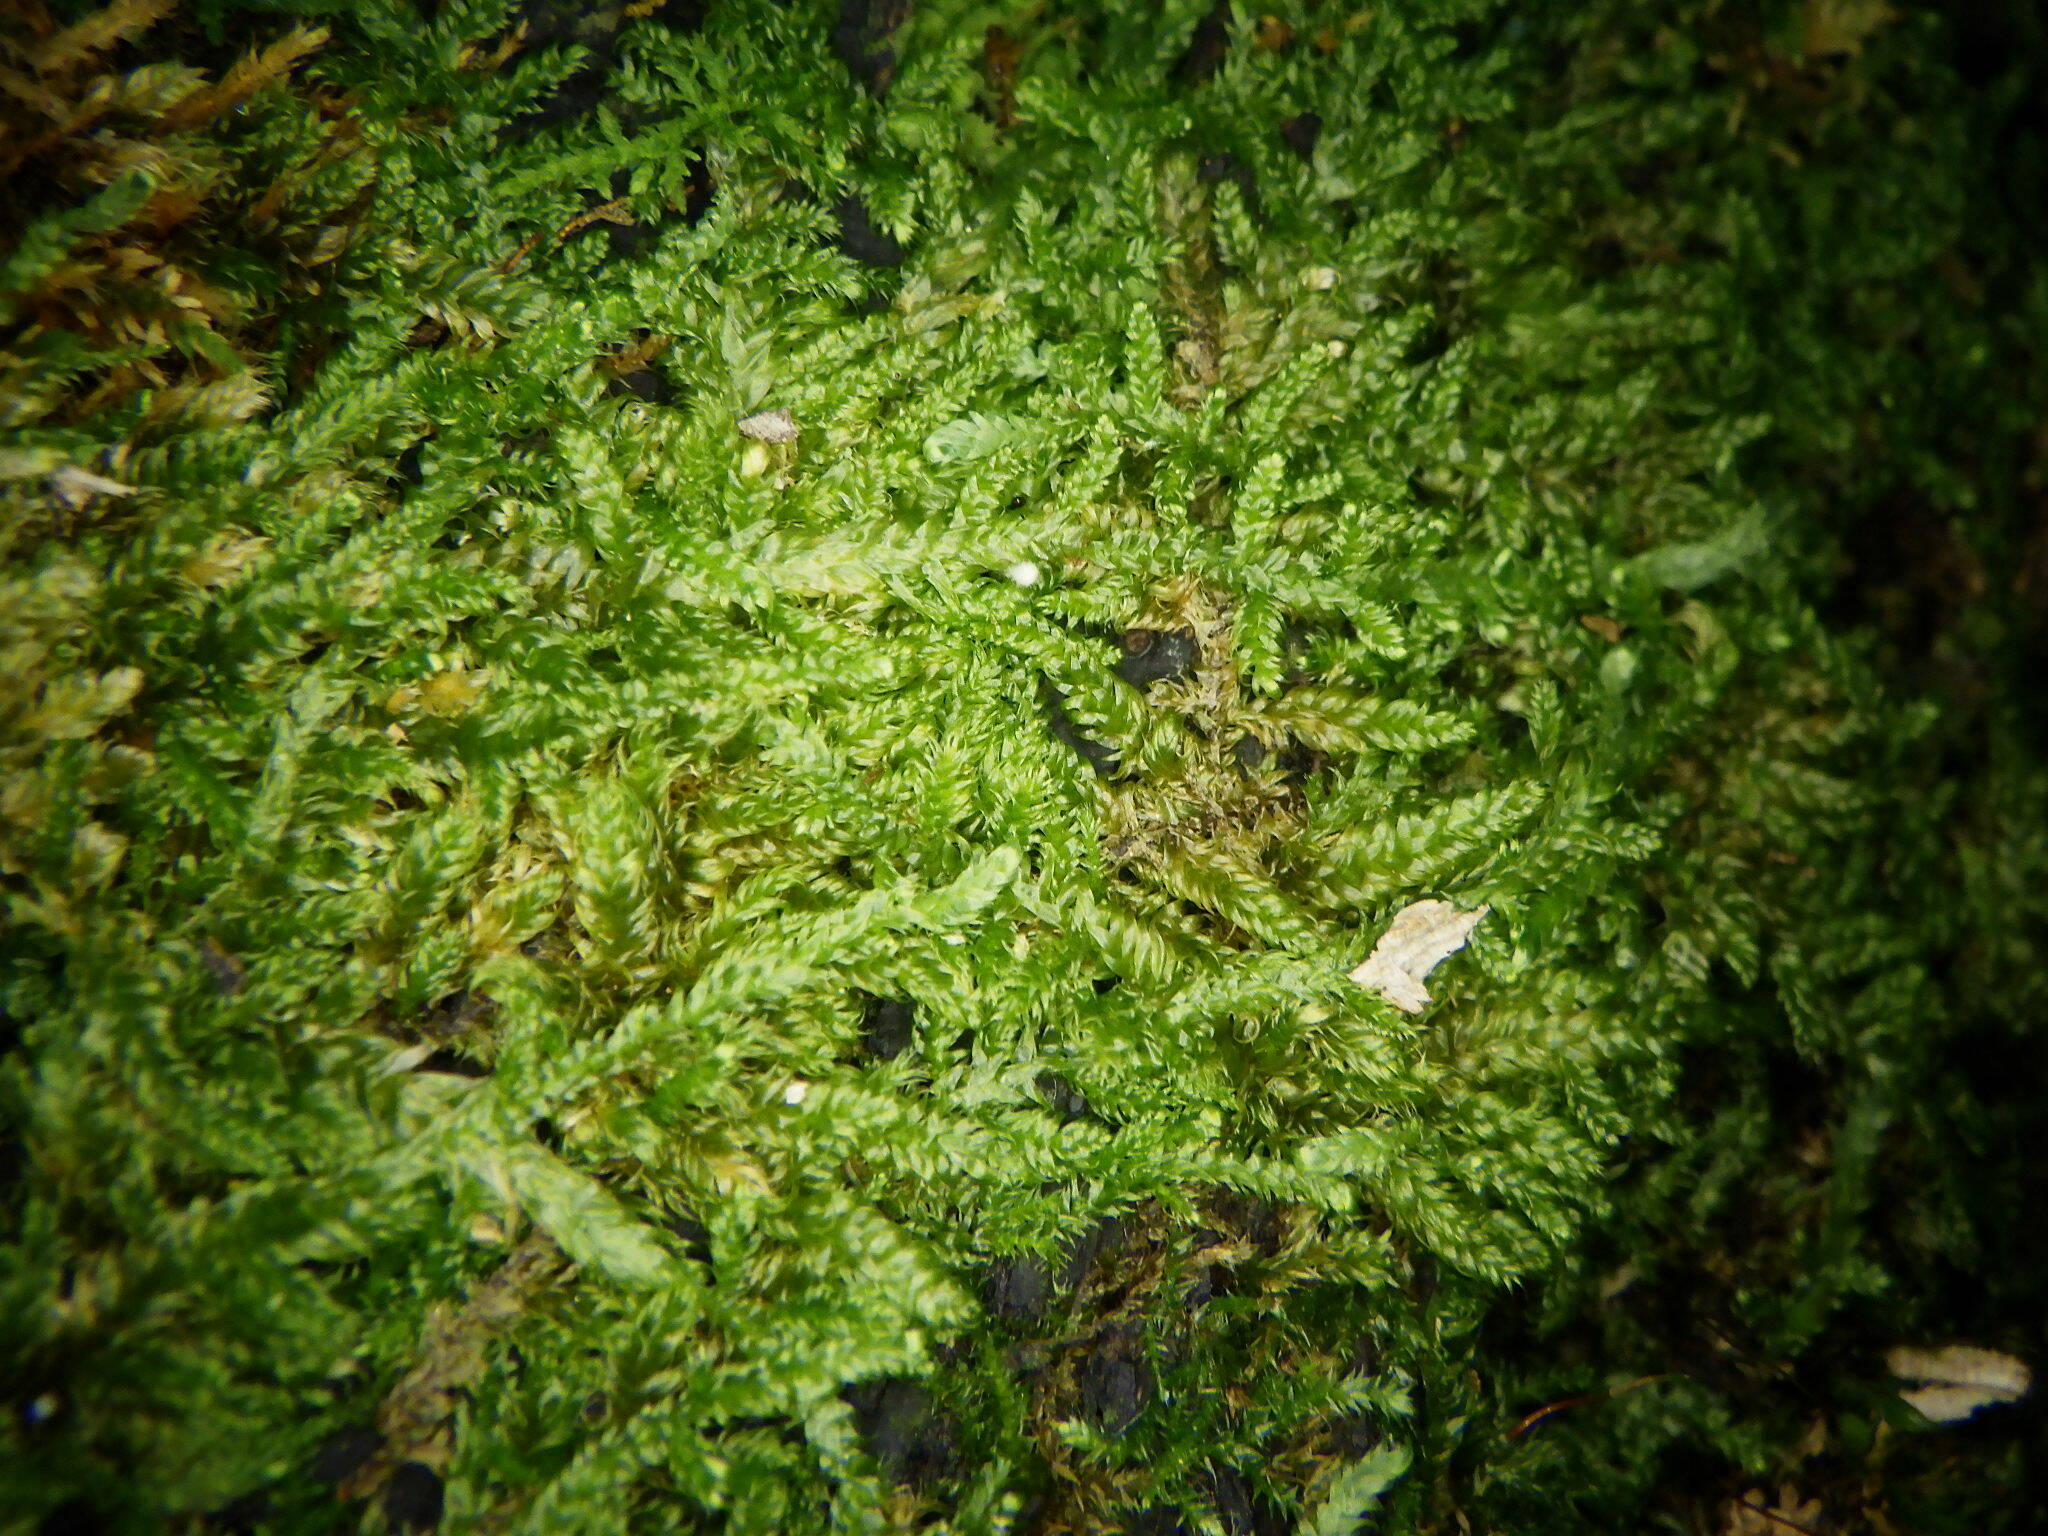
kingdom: Plantae
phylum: Bryophyta
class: Bryopsida
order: Hypnales
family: Callicladiaceae
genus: Callicladium
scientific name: Callicladium imponens
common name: Brocade moss
